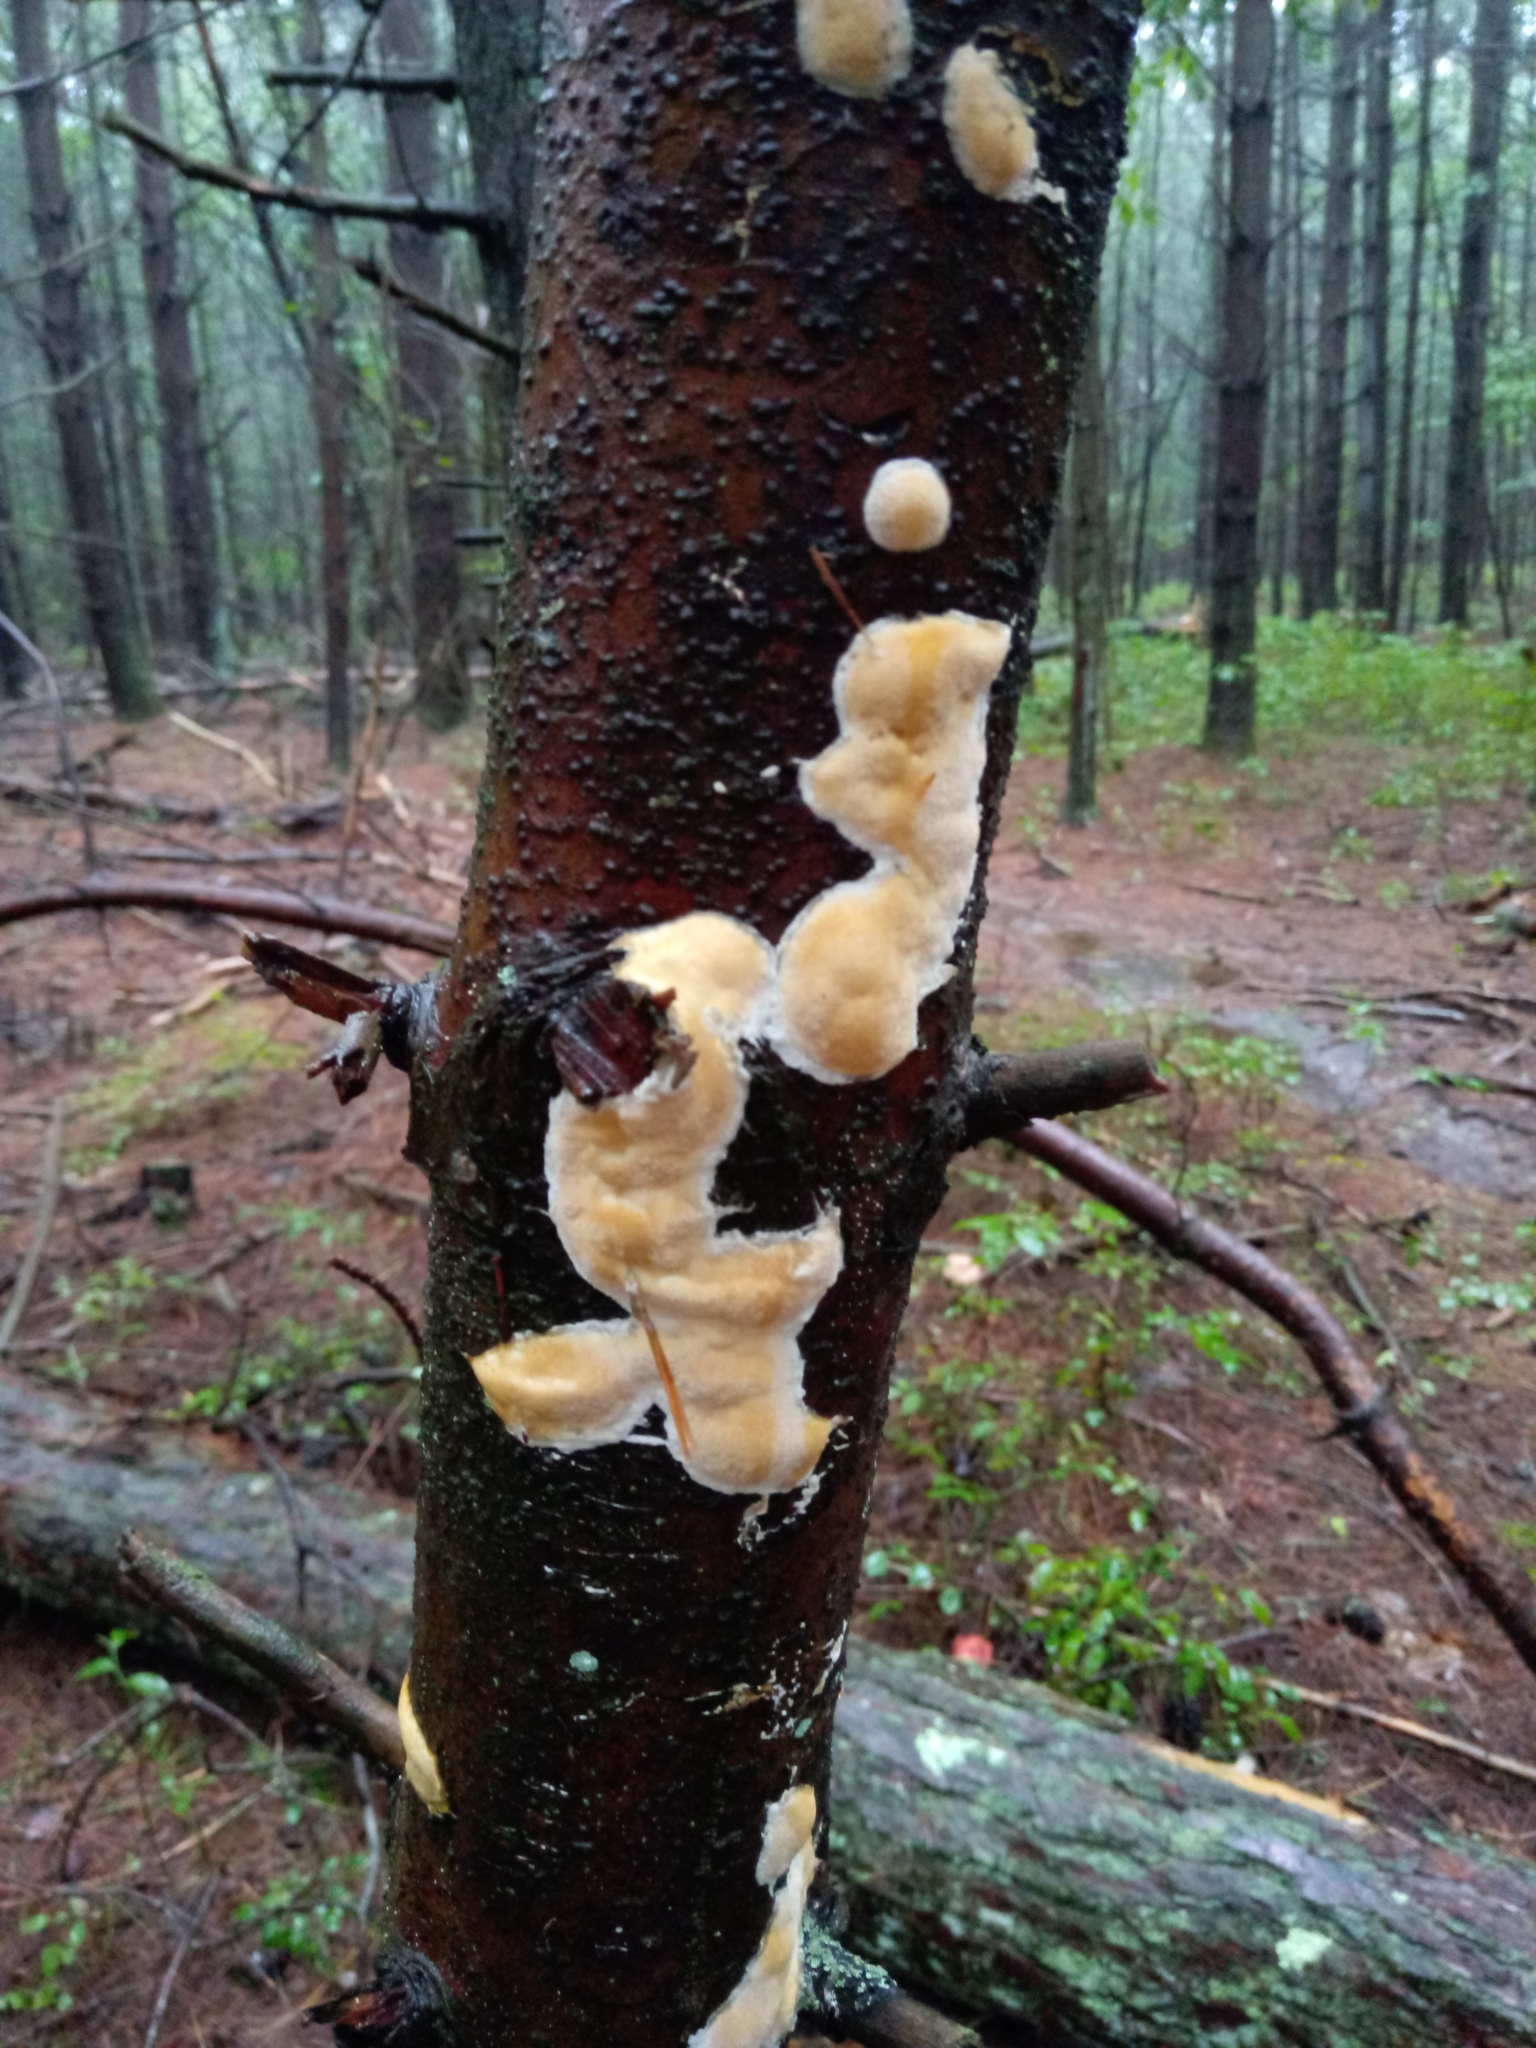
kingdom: Fungi
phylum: Basidiomycota
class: Agaricomycetes
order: Polyporales
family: Polyporaceae
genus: Poriella
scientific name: Poriella subacida
